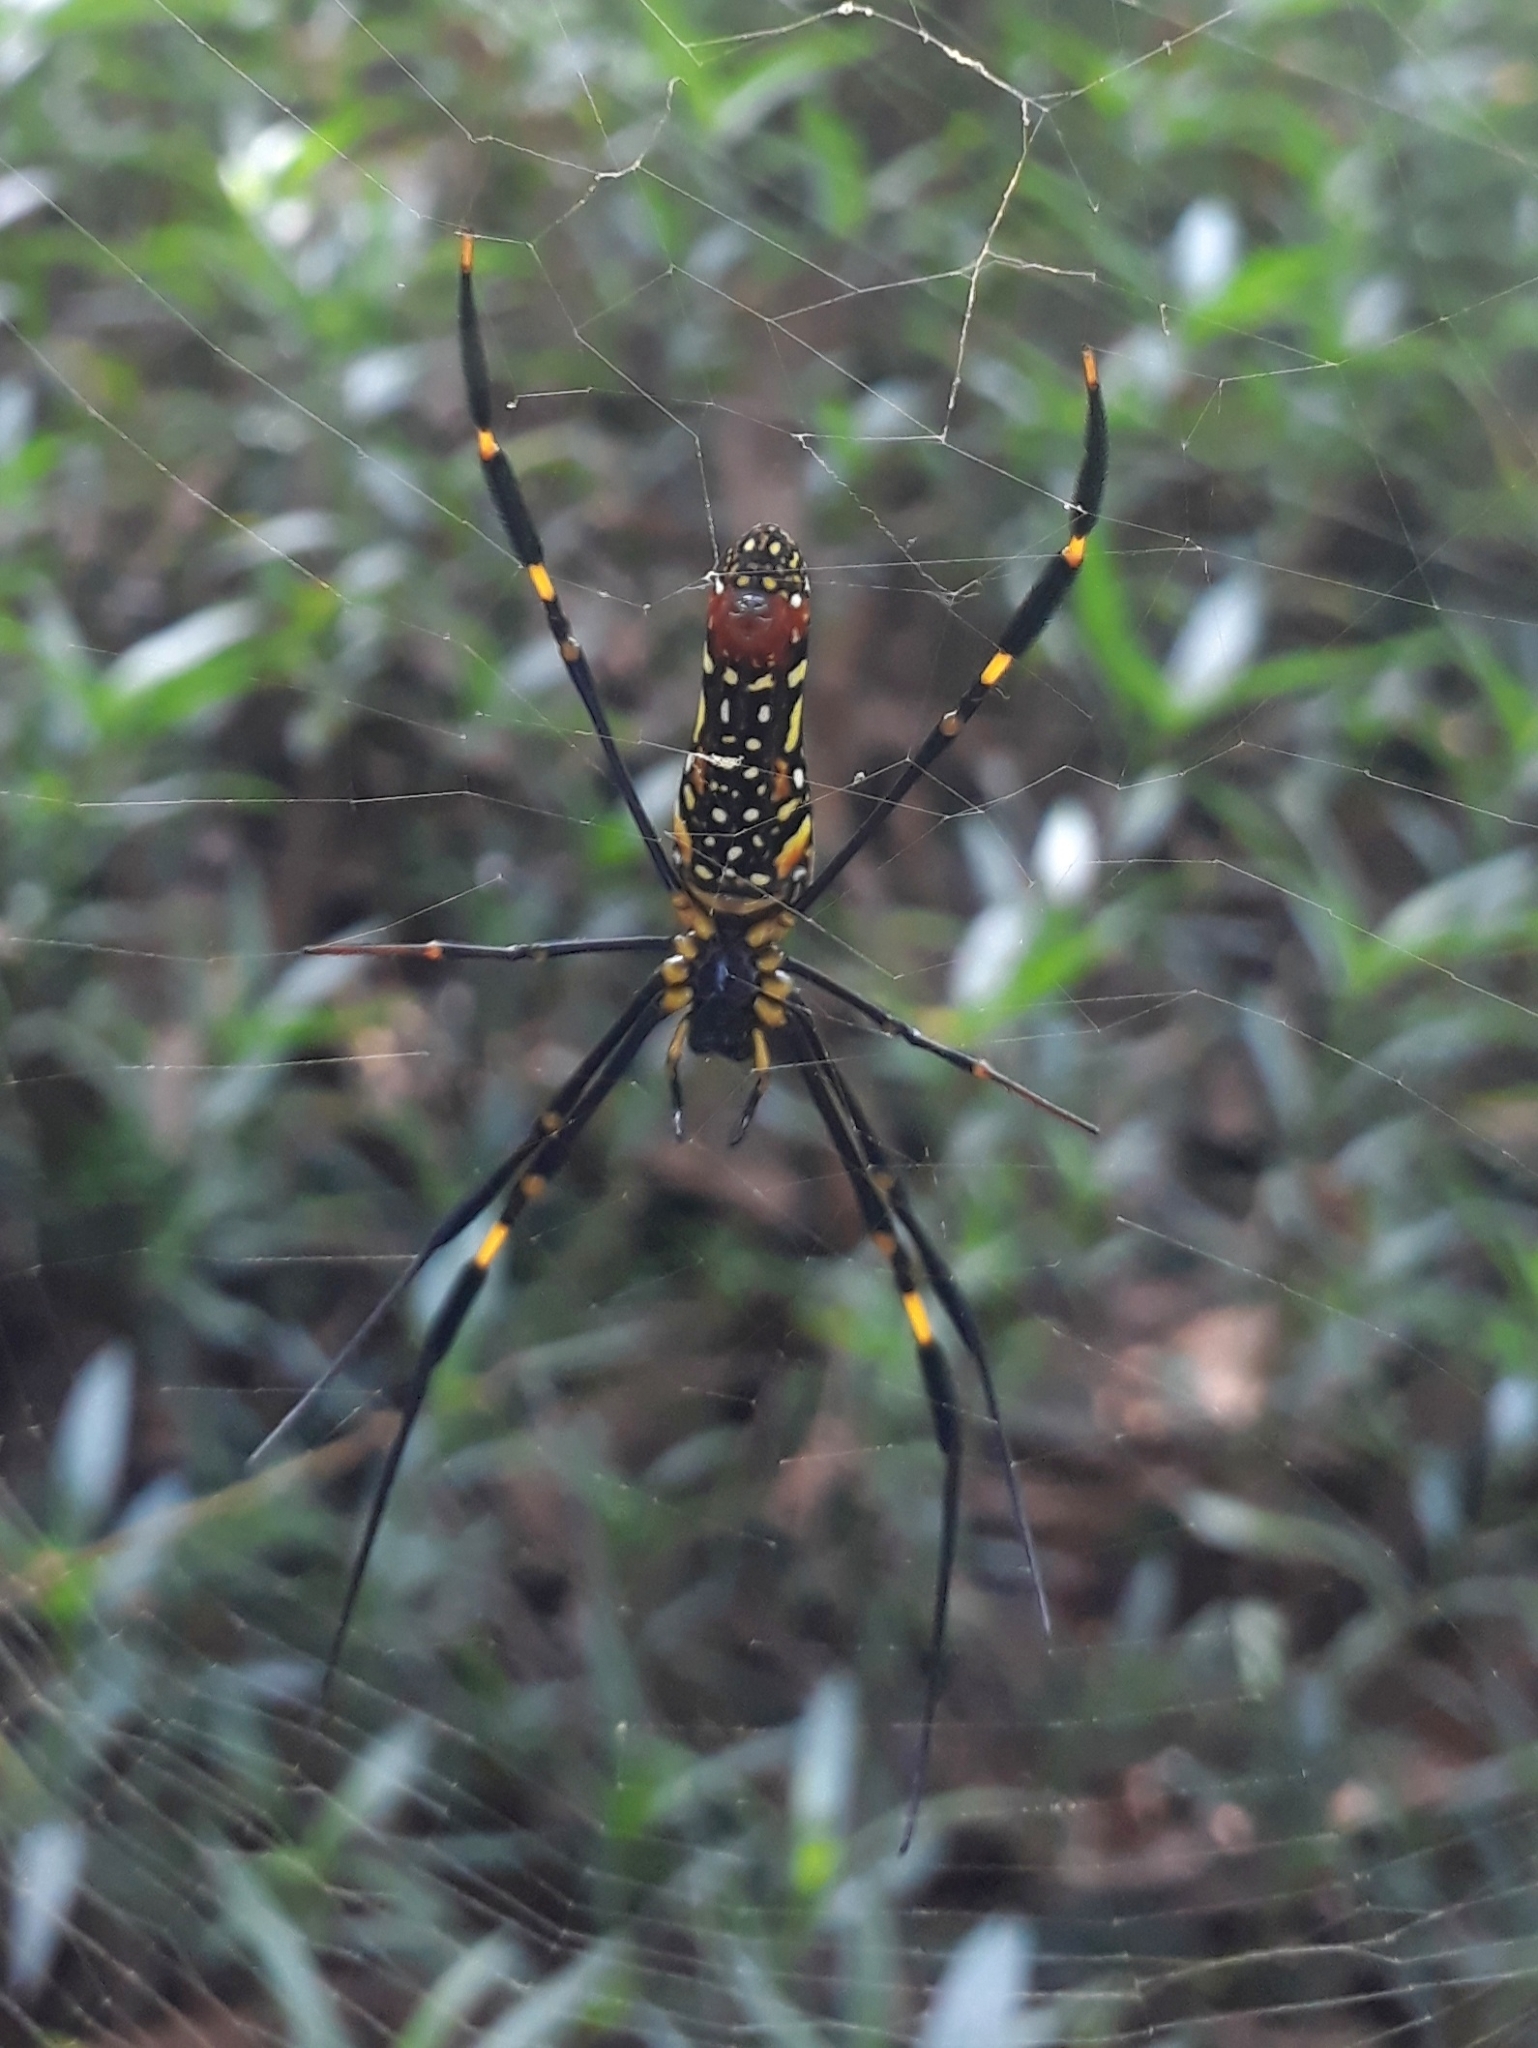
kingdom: Animalia
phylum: Arthropoda
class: Arachnida
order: Araneae
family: Araneidae
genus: Nephila
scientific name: Nephila pilipes
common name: Giant golden orb weaver
